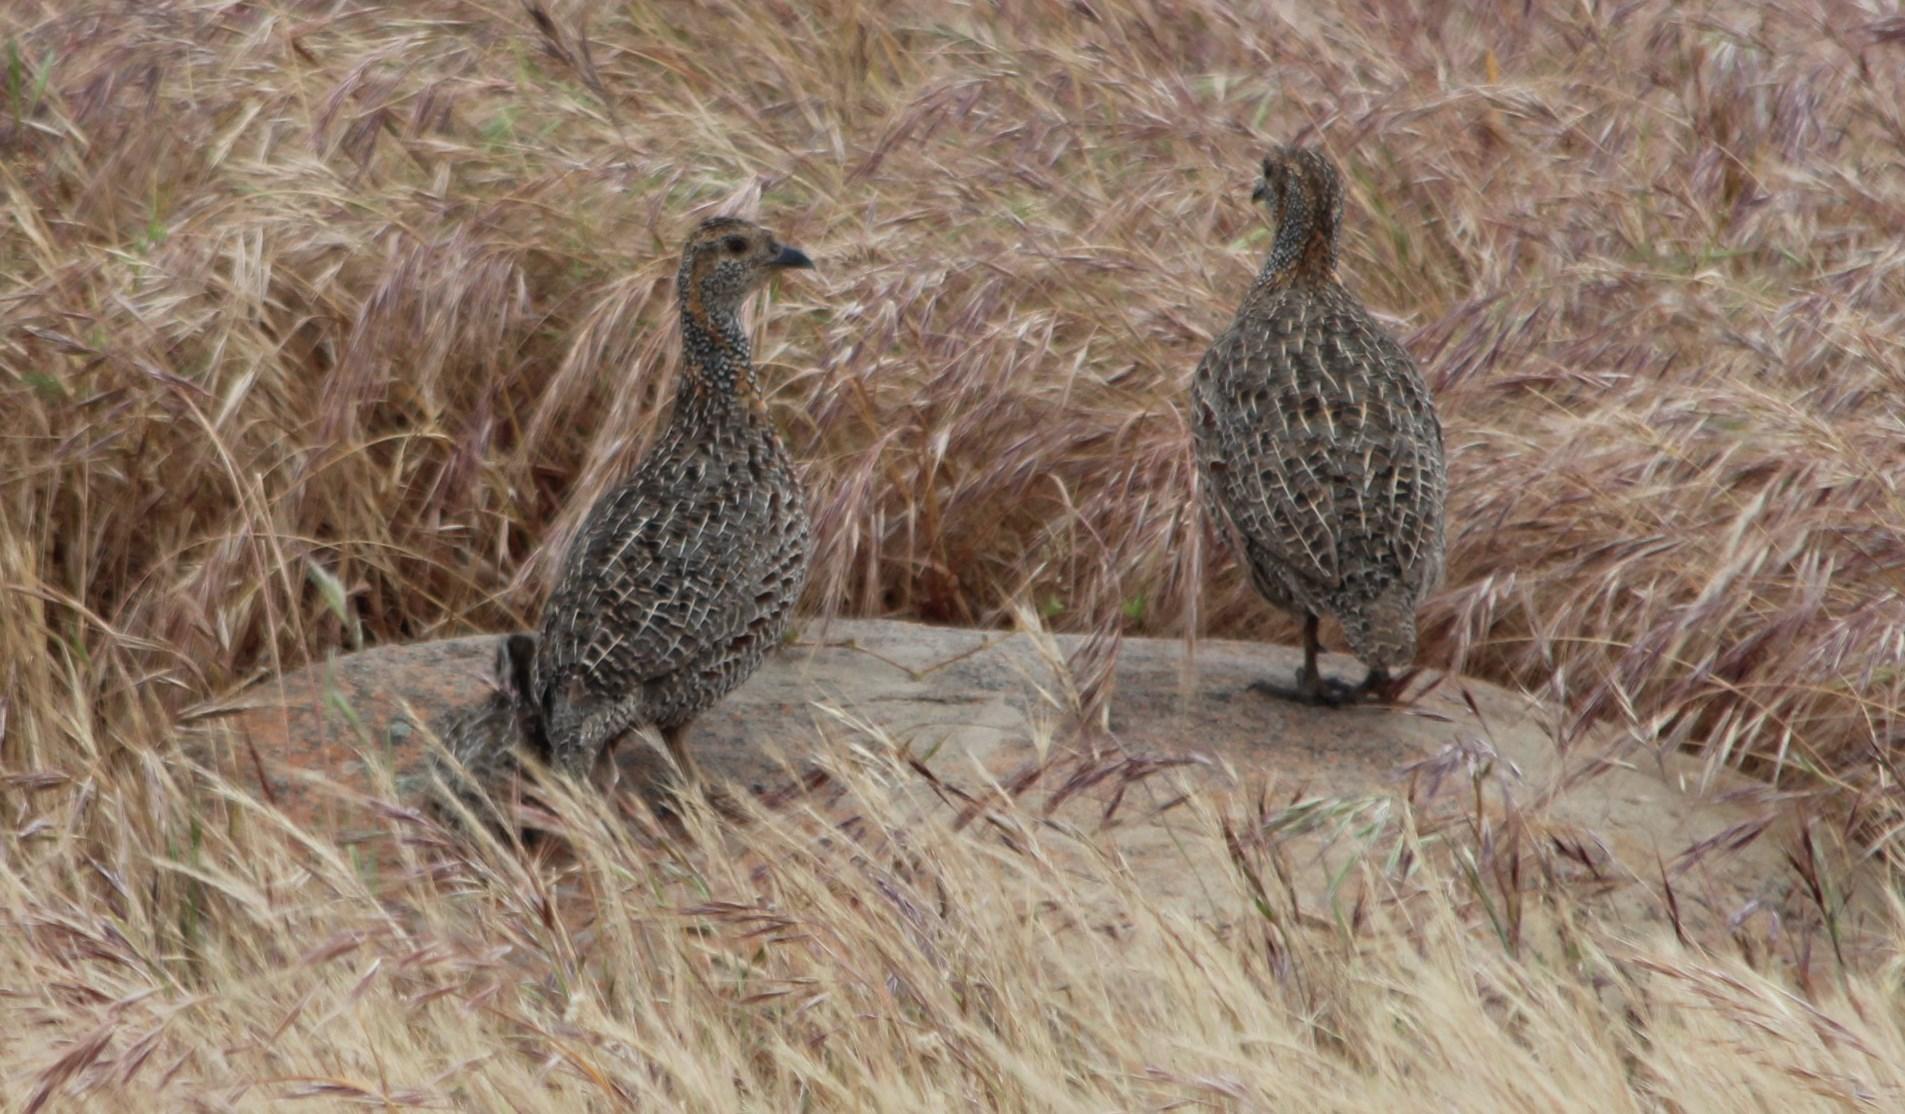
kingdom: Animalia
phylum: Chordata
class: Aves
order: Galliformes
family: Phasianidae
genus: Scleroptila
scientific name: Scleroptila afra
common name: Grey-winged francolin
